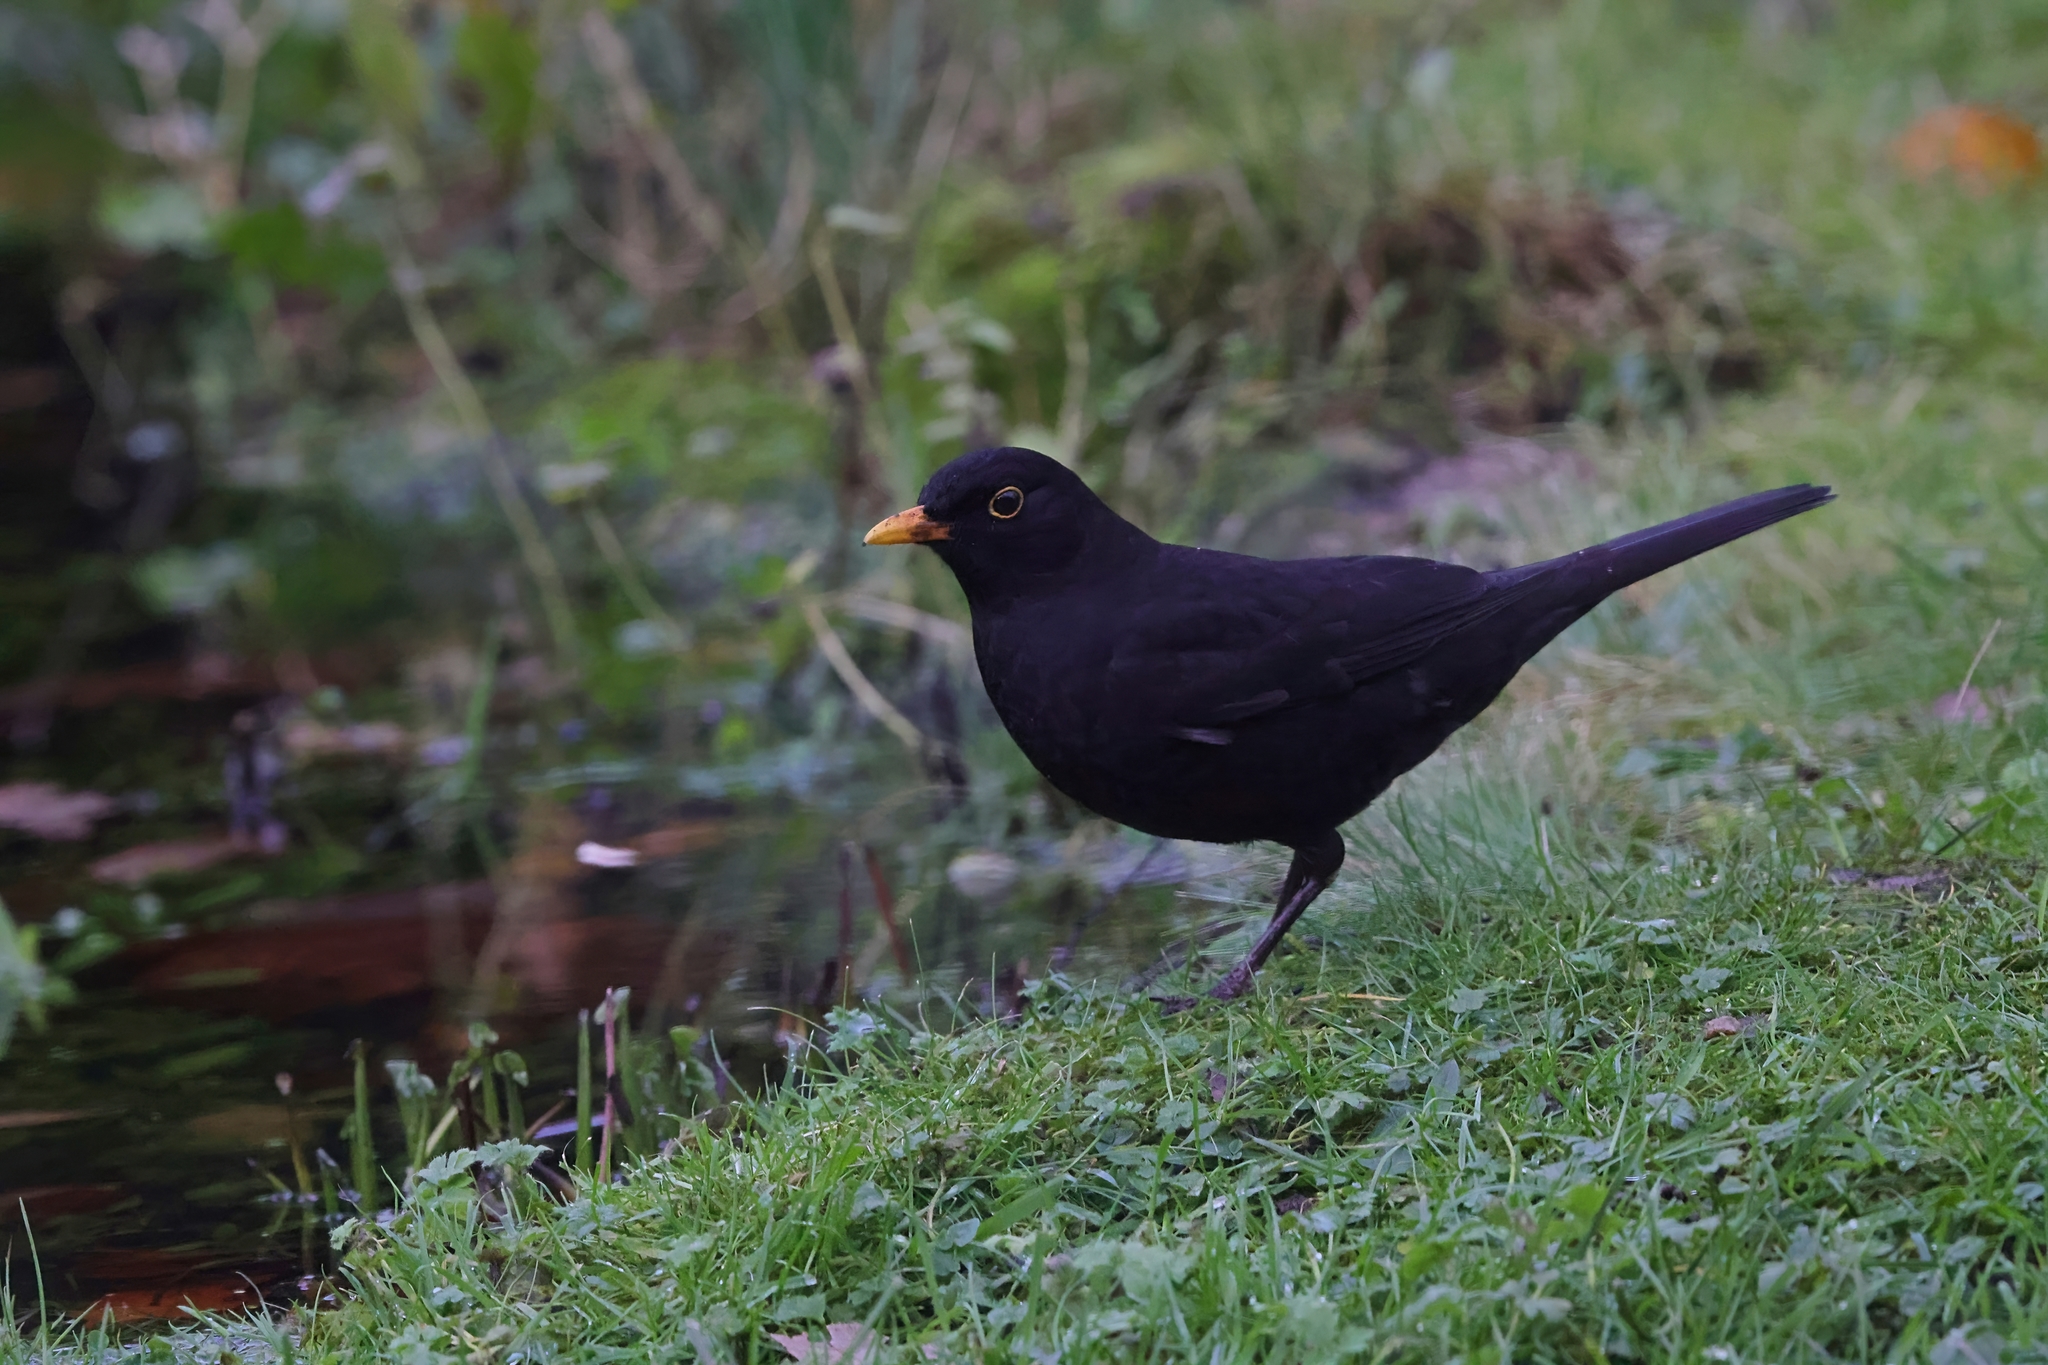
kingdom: Animalia
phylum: Chordata
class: Aves
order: Passeriformes
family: Turdidae
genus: Turdus
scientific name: Turdus merula
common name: Common blackbird
